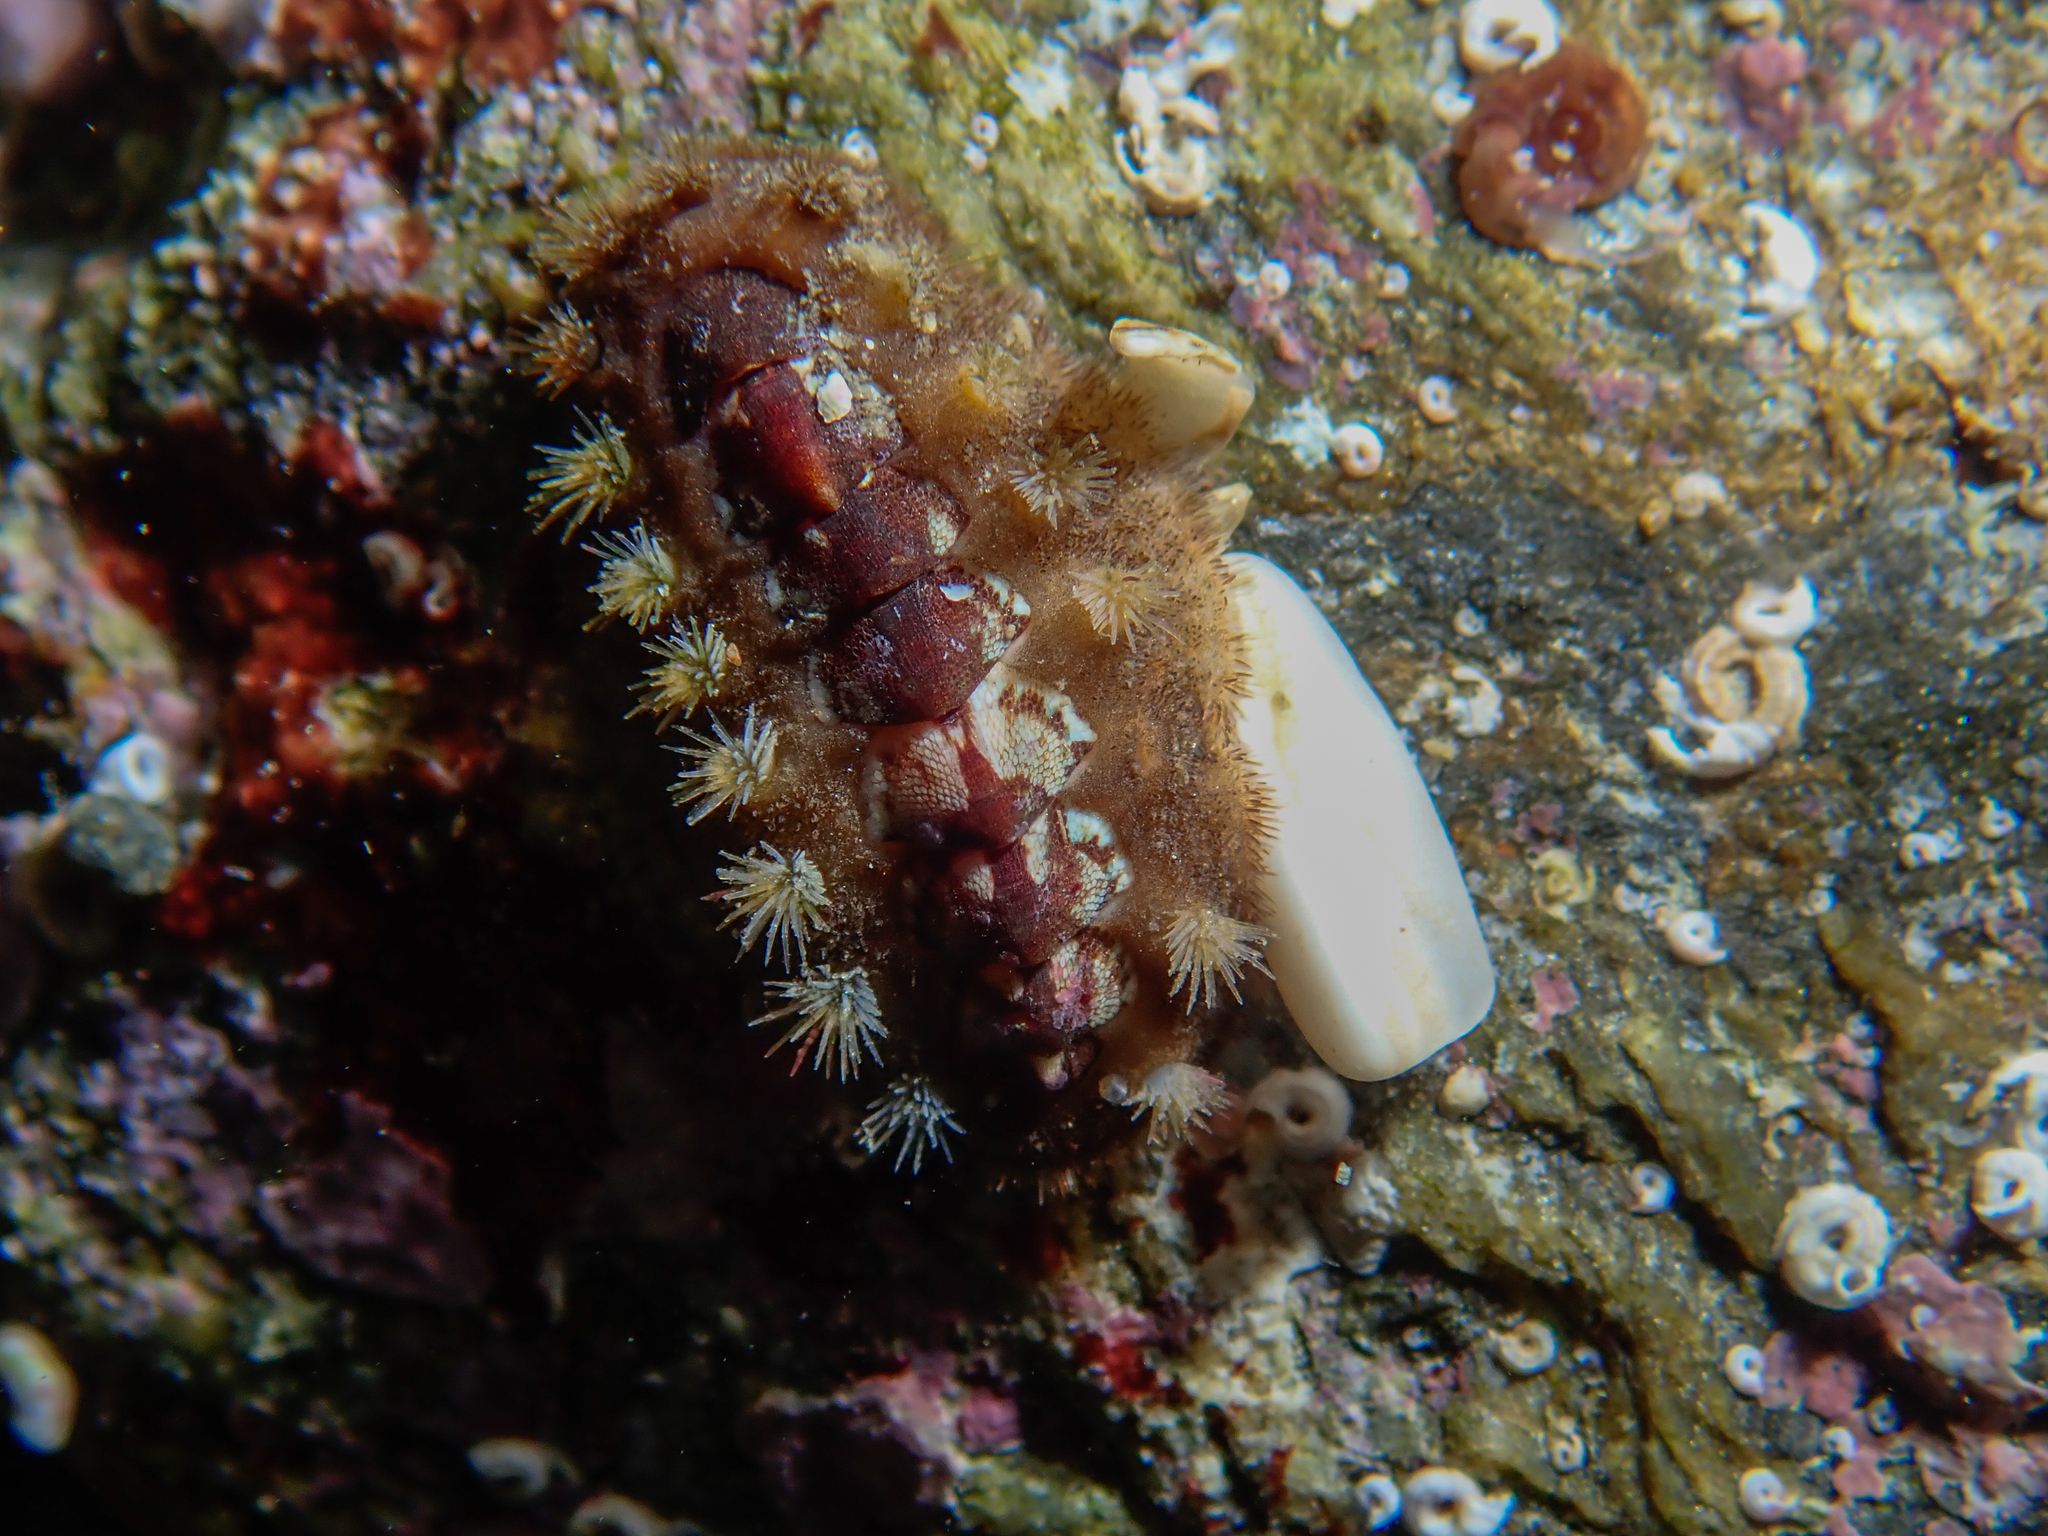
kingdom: Animalia
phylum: Mollusca
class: Polyplacophora
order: Chitonida
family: Acanthochitonidae
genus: Acanthochitona
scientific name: Acanthochitona crinita
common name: Bristly mail chiton
